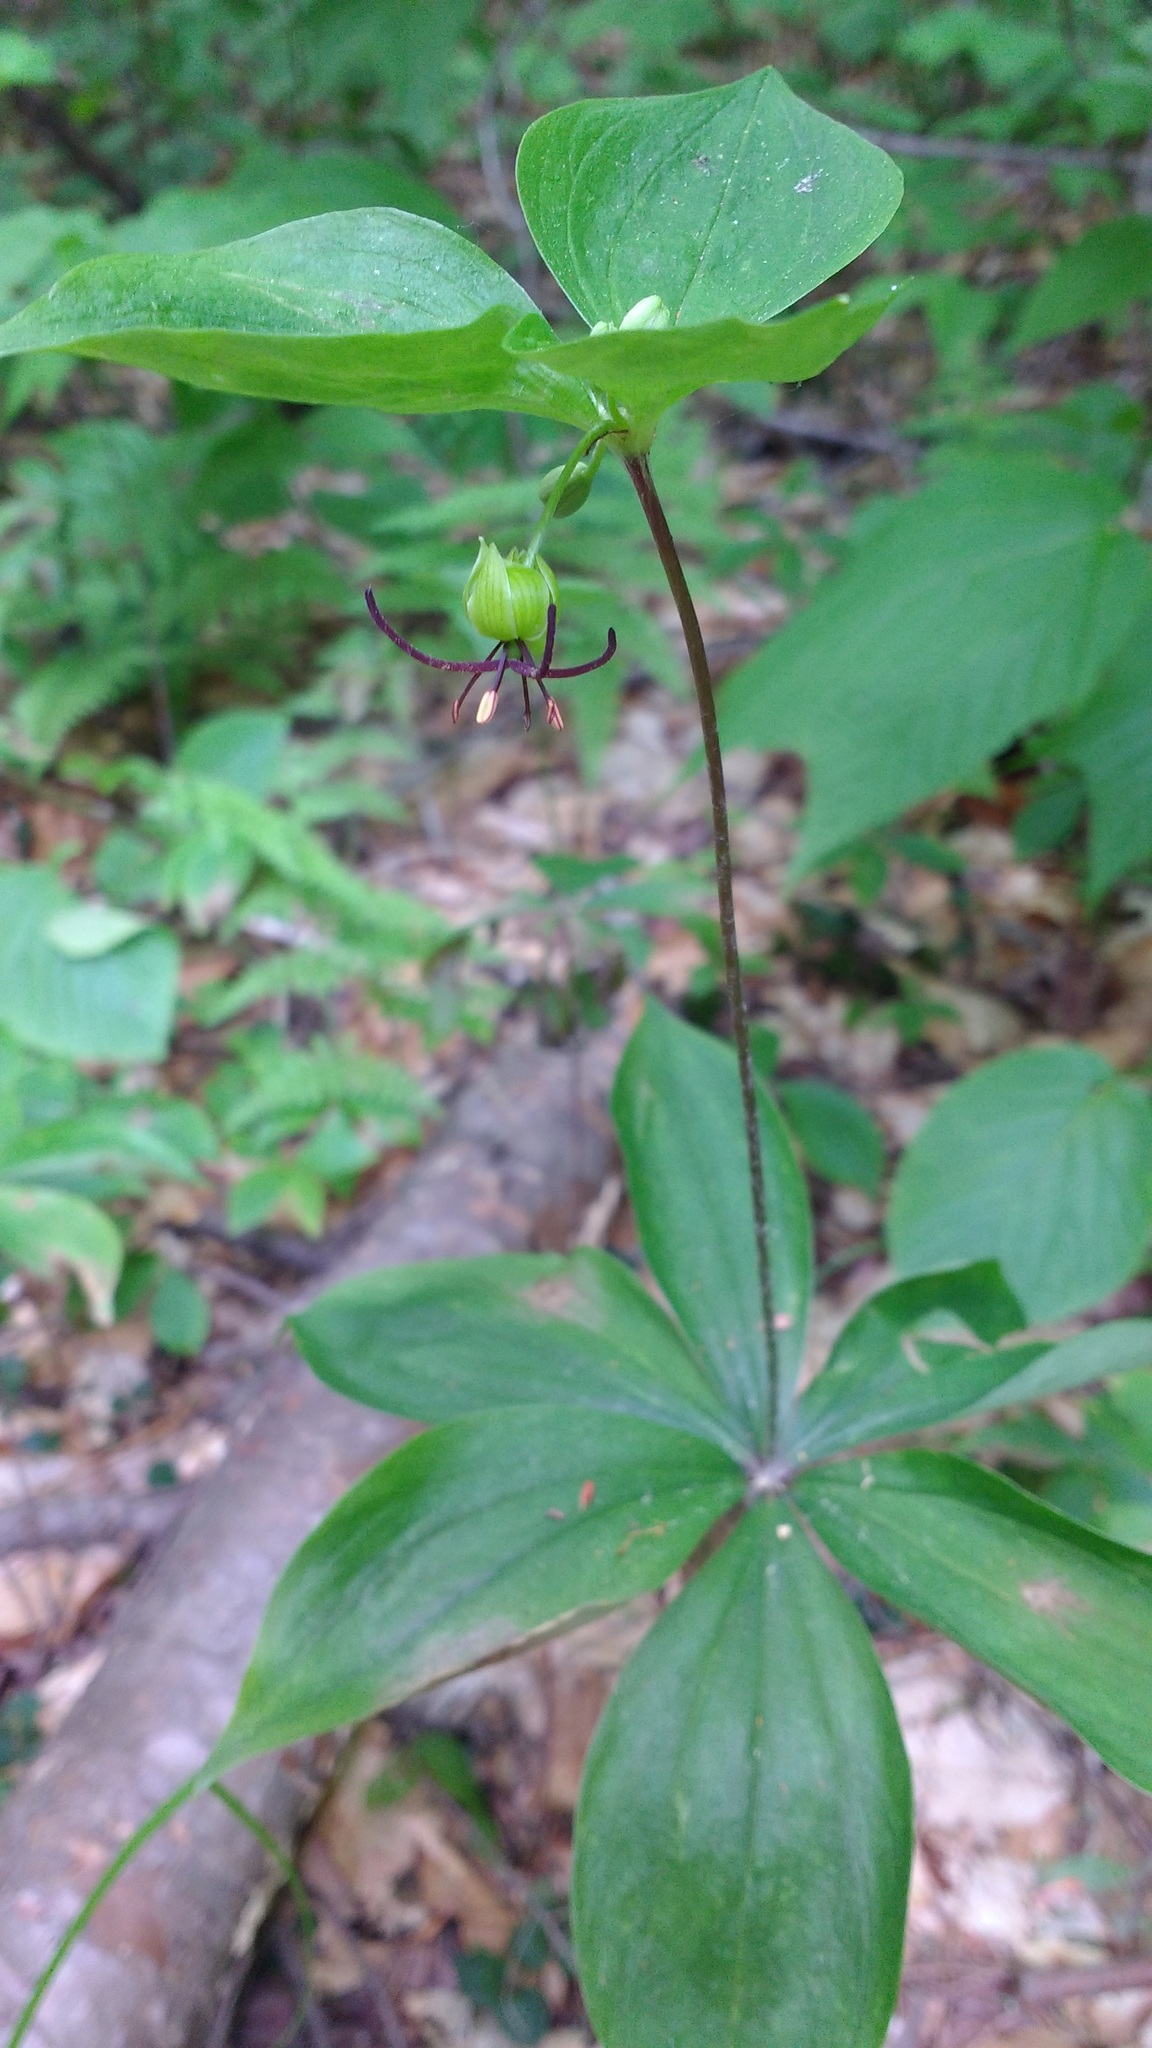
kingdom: Plantae
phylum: Tracheophyta
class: Liliopsida
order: Liliales
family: Liliaceae
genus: Medeola
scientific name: Medeola virginiana
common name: Indian cucumber-root
